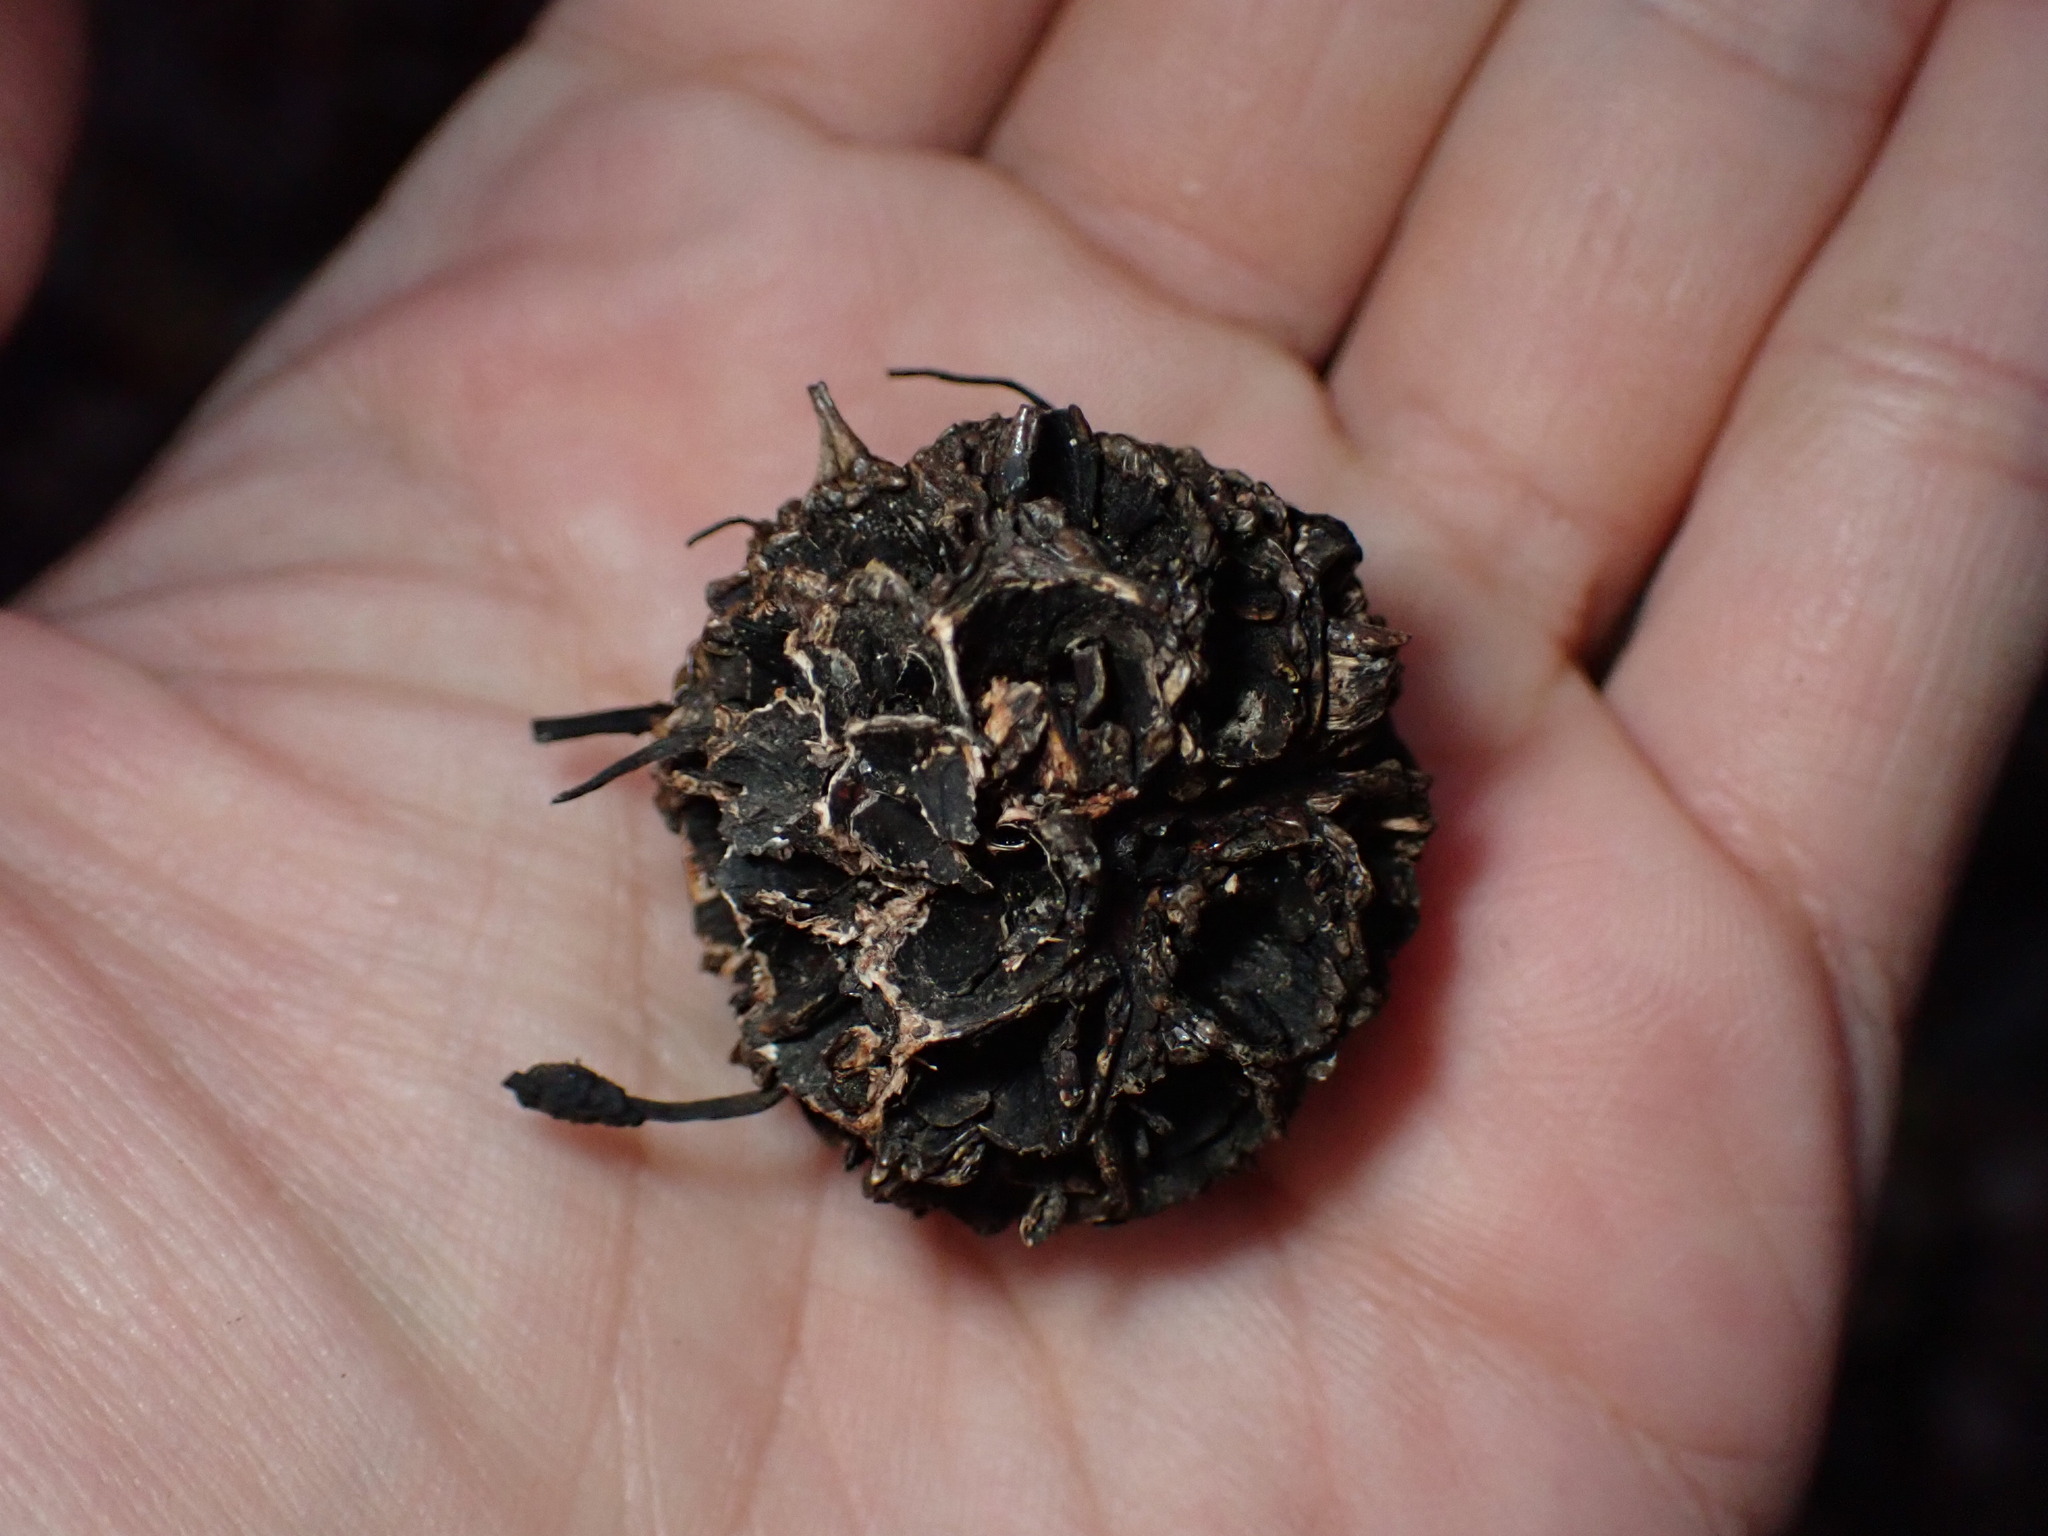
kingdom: Fungi
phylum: Ascomycota
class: Sordariomycetes
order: Xylariales
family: Xylariaceae
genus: Xylaria
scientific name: Xylaria liquidambaris
